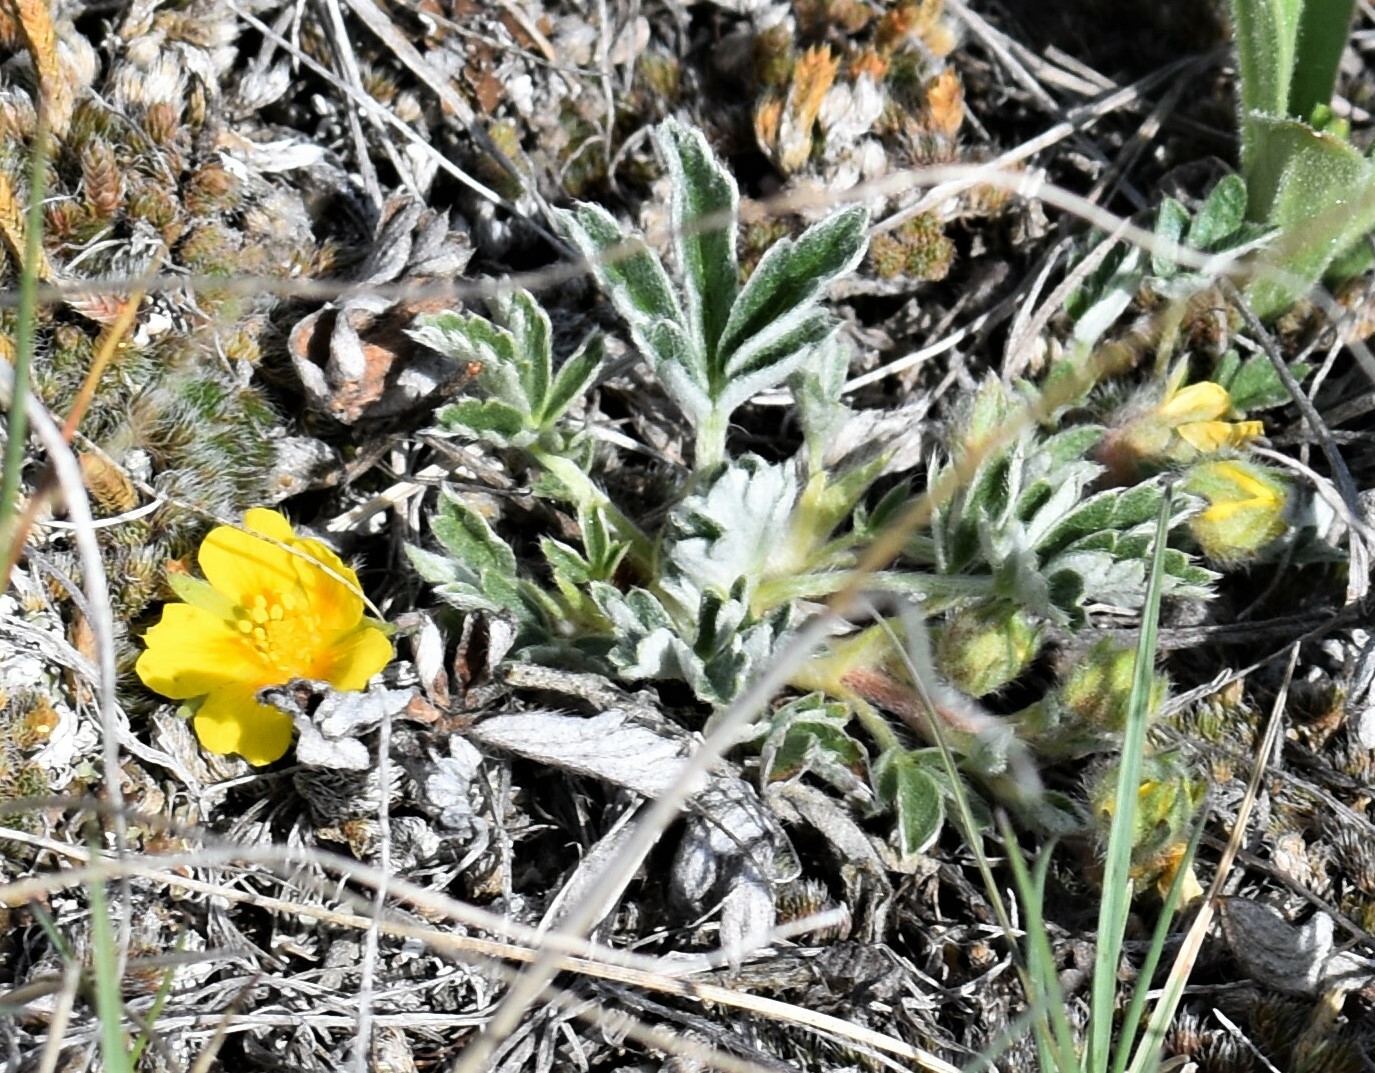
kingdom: Plantae
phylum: Tracheophyta
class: Magnoliopsida
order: Rosales
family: Rosaceae
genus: Potentilla
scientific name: Potentilla concinna
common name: Early cinquefoil
